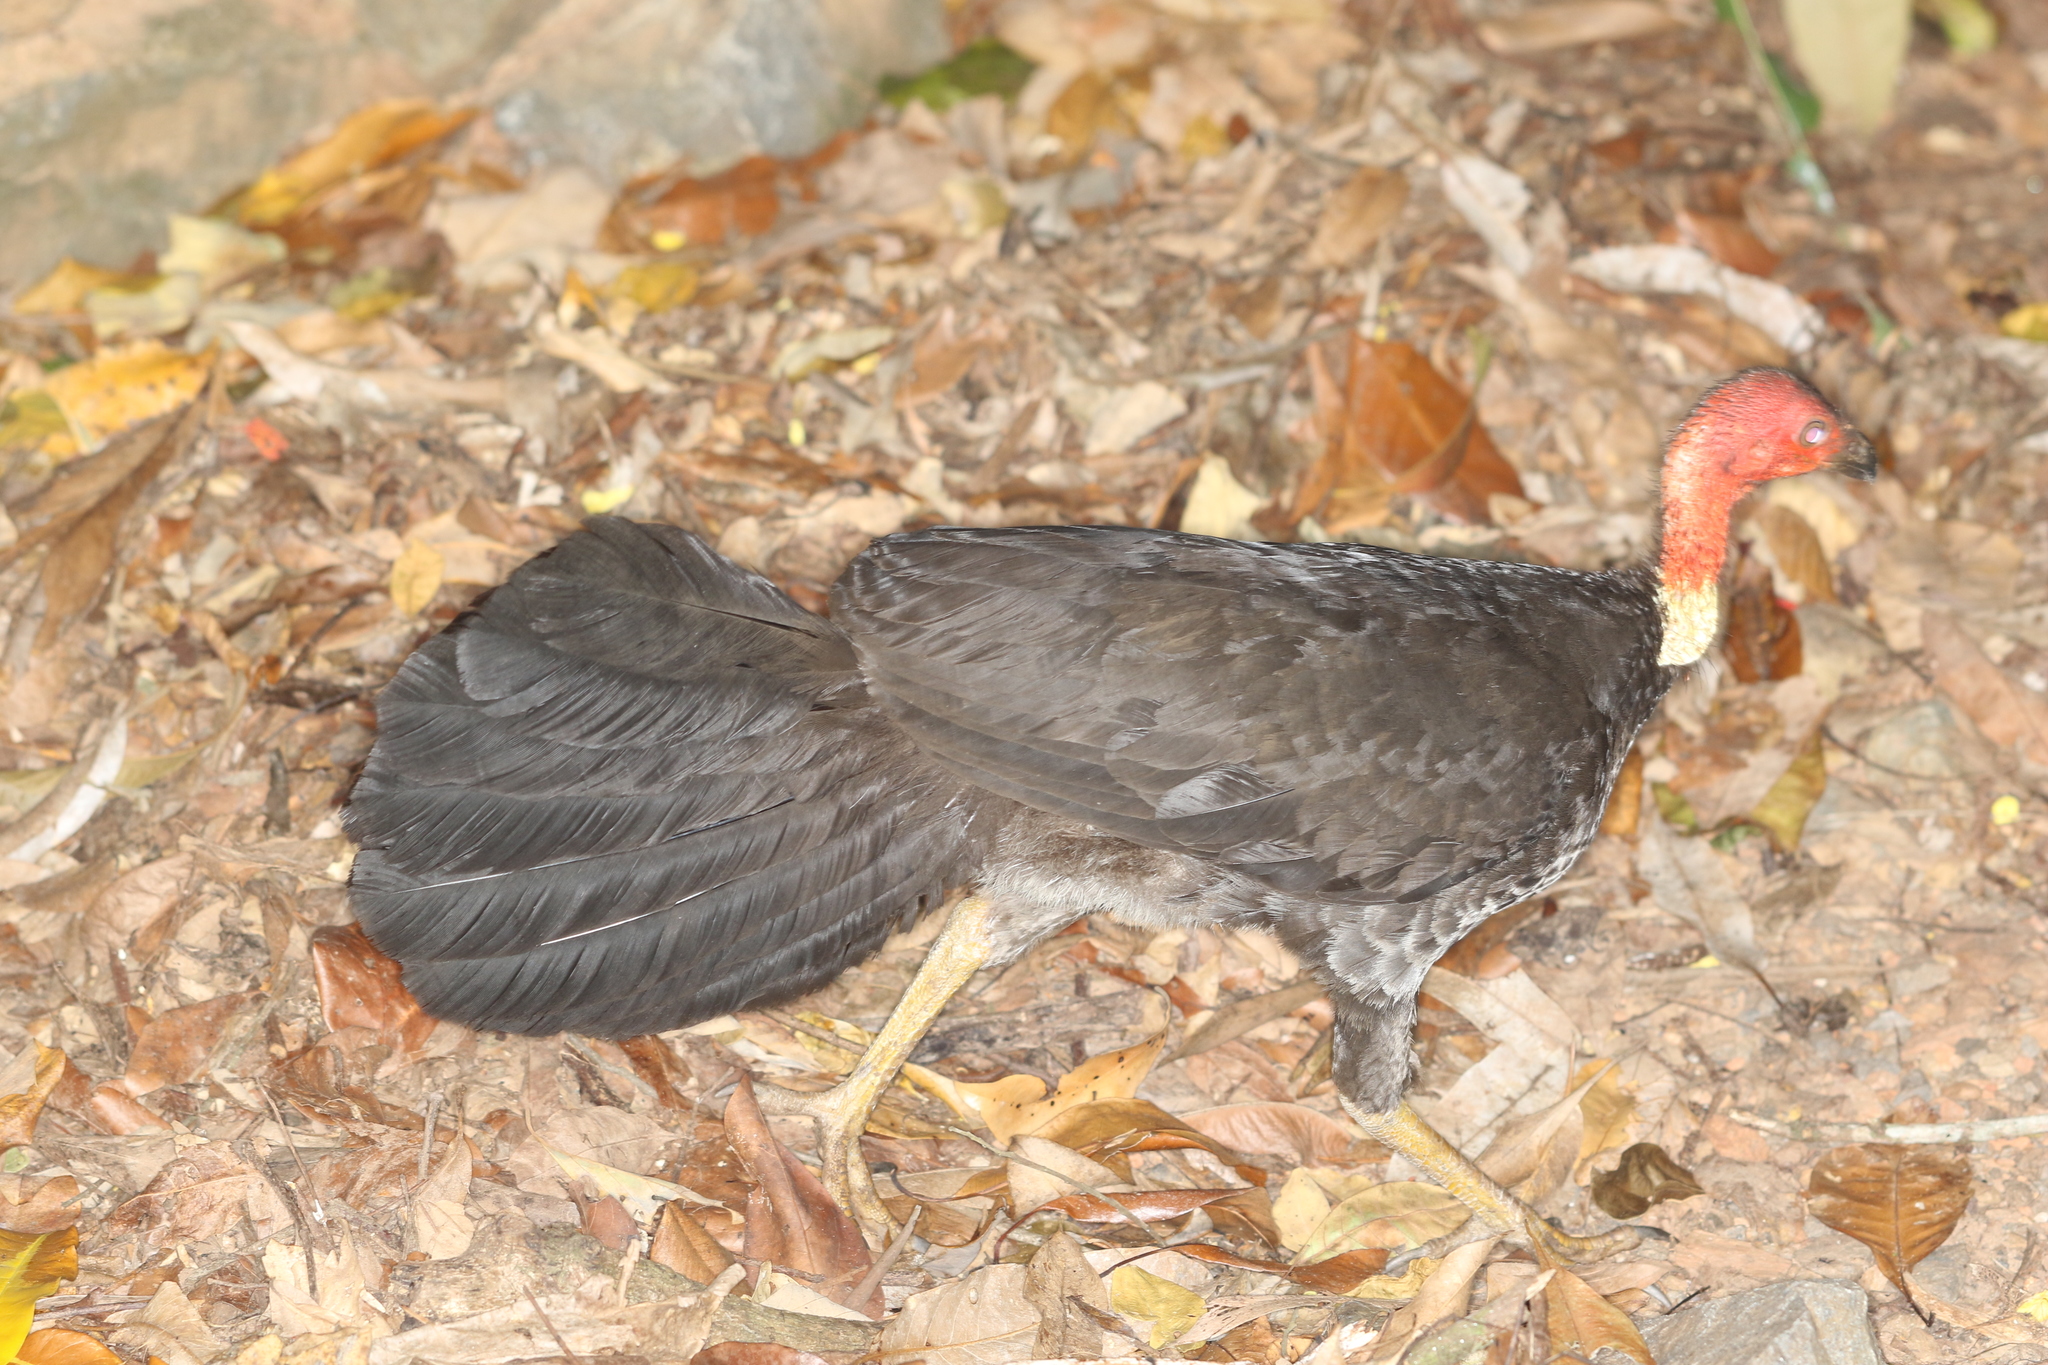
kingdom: Animalia
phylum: Chordata
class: Aves
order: Galliformes
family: Megapodiidae
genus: Alectura
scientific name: Alectura lathami
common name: Australian brushturkey
